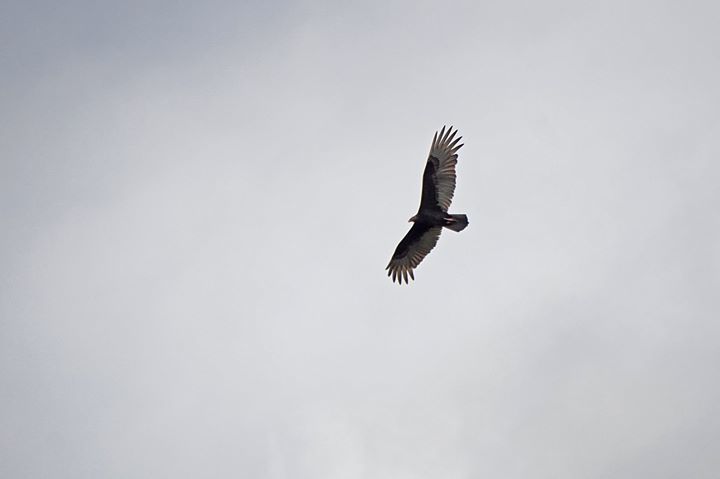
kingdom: Animalia
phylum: Chordata
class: Aves
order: Accipitriformes
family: Cathartidae
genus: Cathartes
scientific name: Cathartes aura
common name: Turkey vulture
